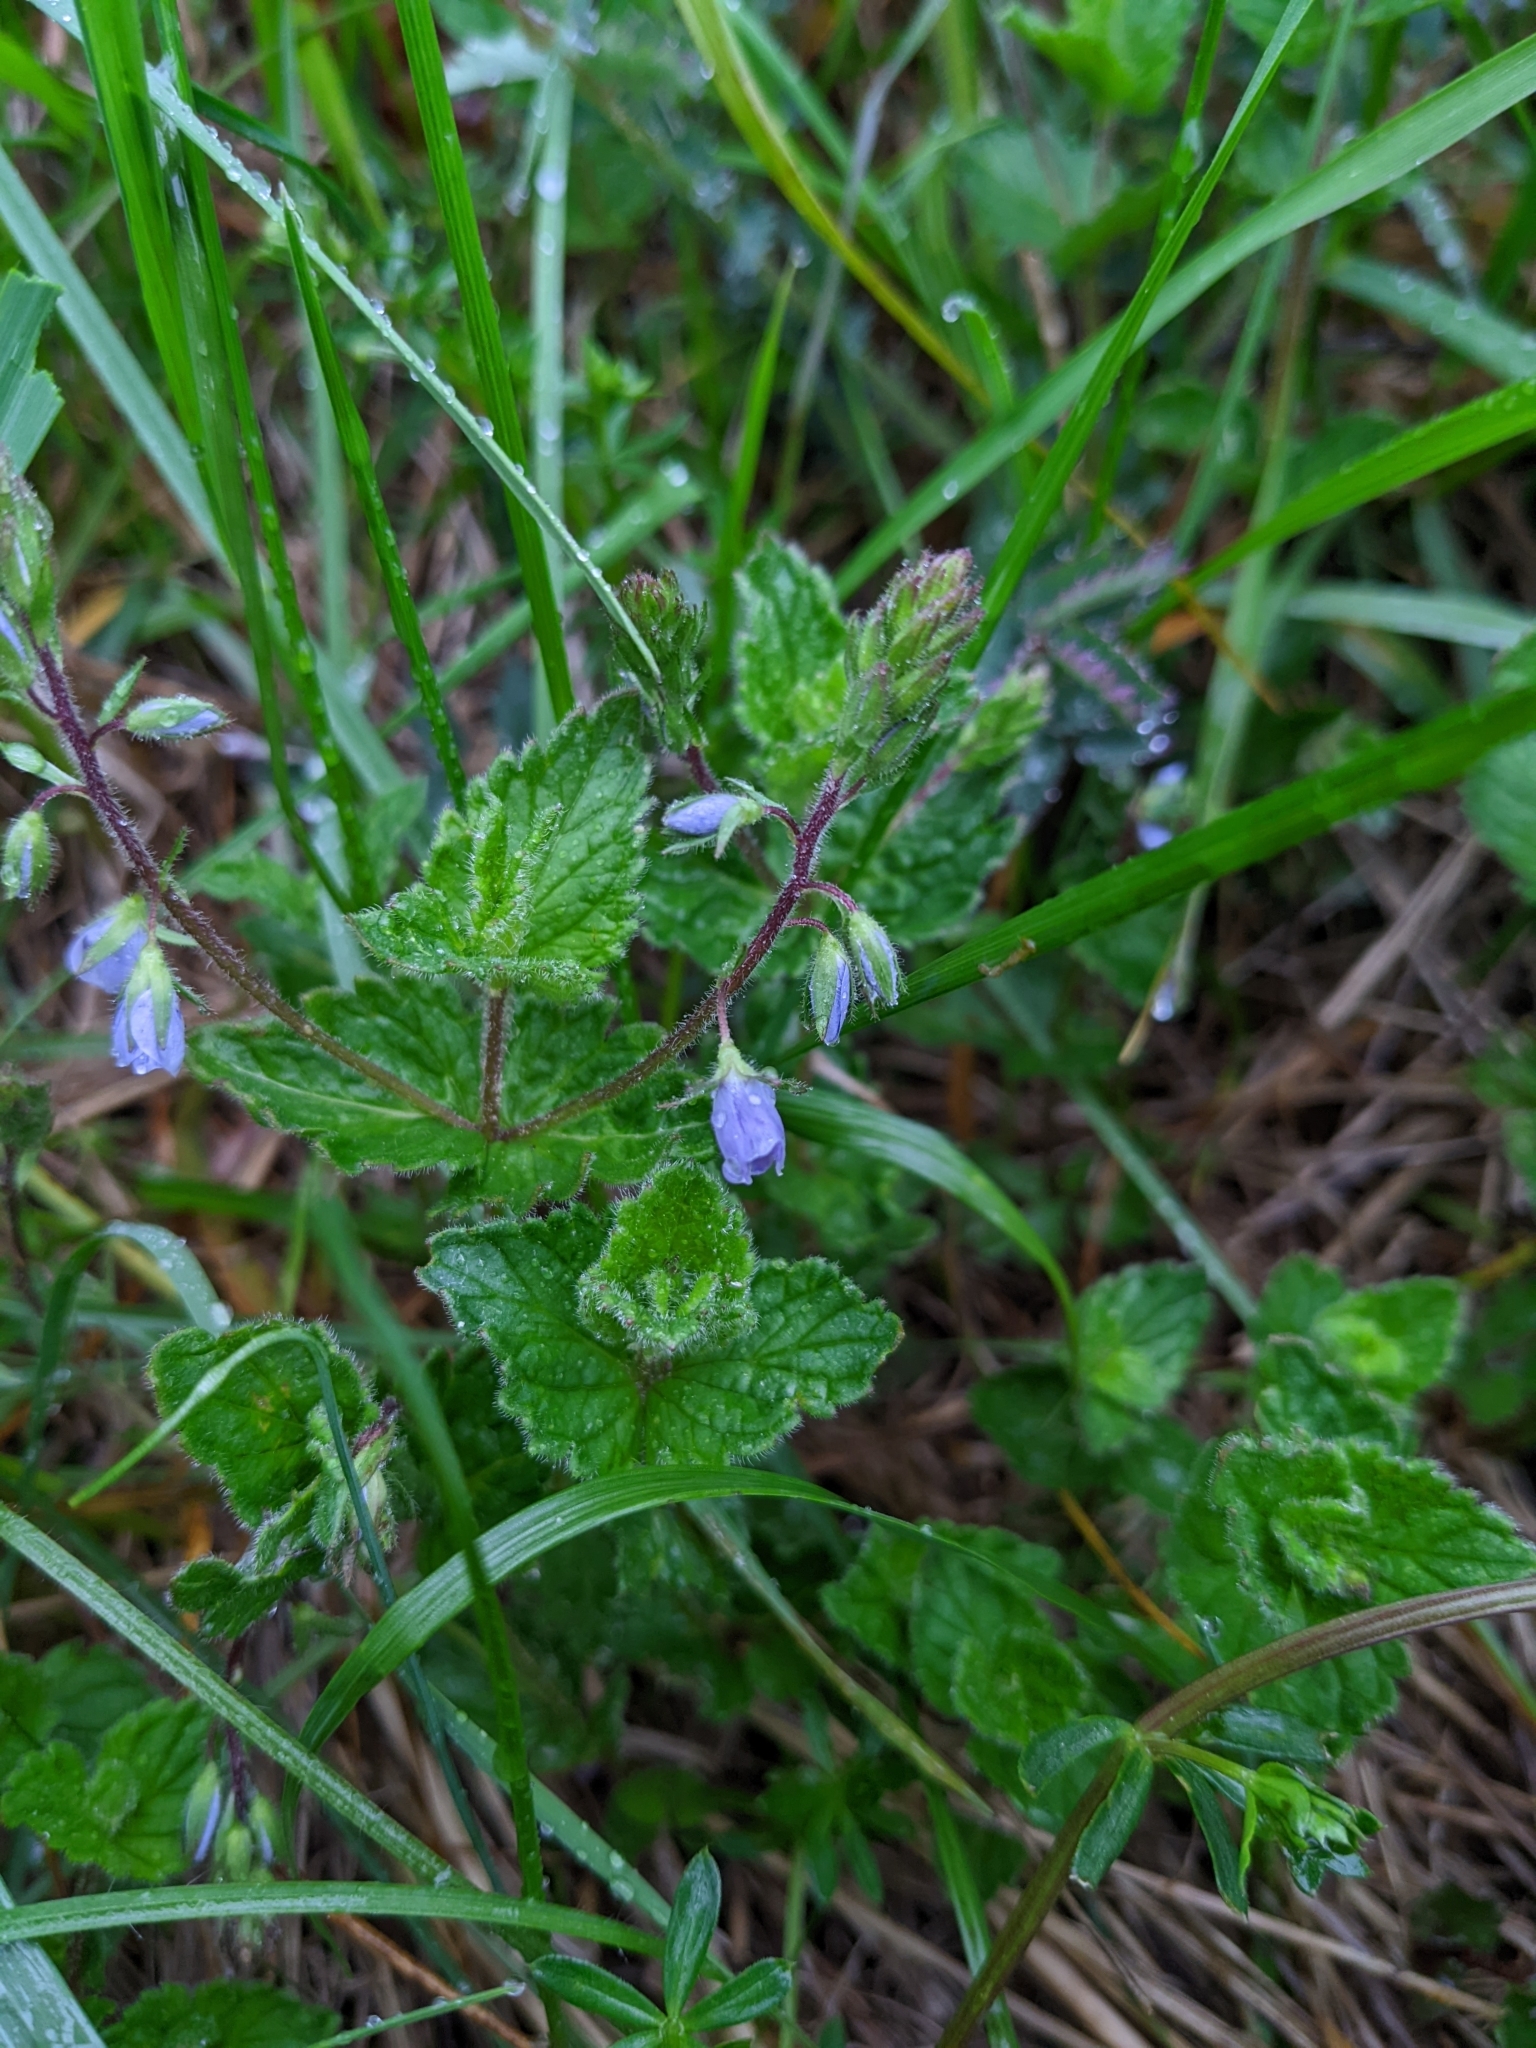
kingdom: Plantae
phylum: Tracheophyta
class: Magnoliopsida
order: Lamiales
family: Plantaginaceae
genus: Veronica
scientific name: Veronica chamaedrys
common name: Germander speedwell
